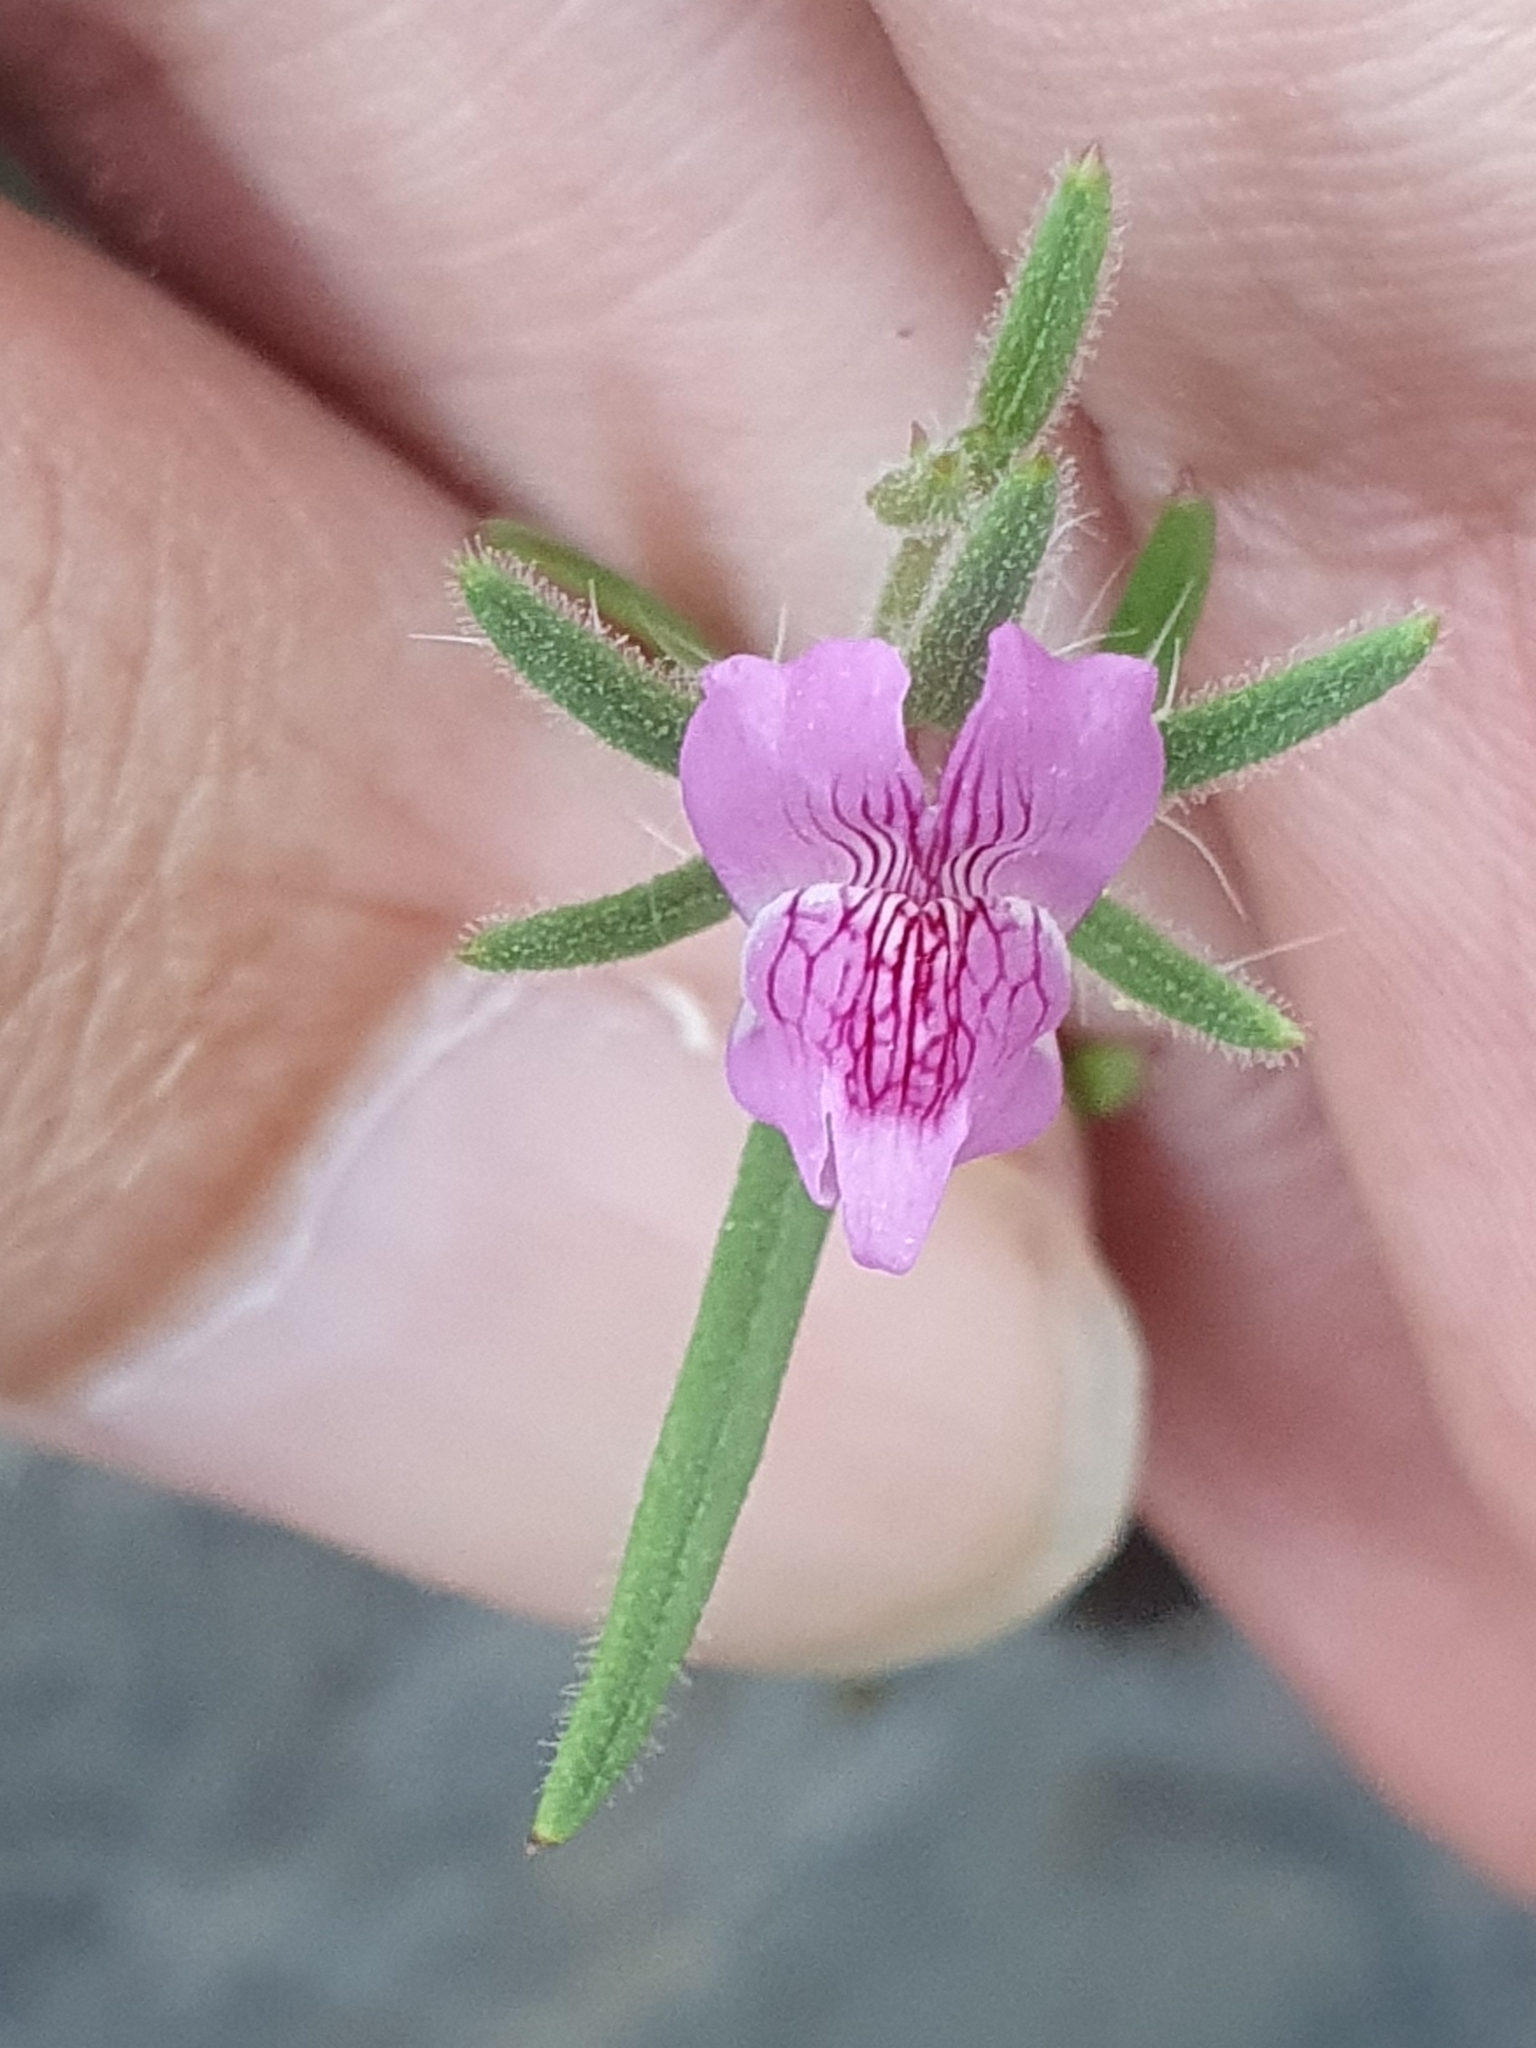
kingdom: Plantae
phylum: Tracheophyta
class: Magnoliopsida
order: Lamiales
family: Plantaginaceae
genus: Misopates
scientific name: Misopates orontium
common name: Weasel's-snout
